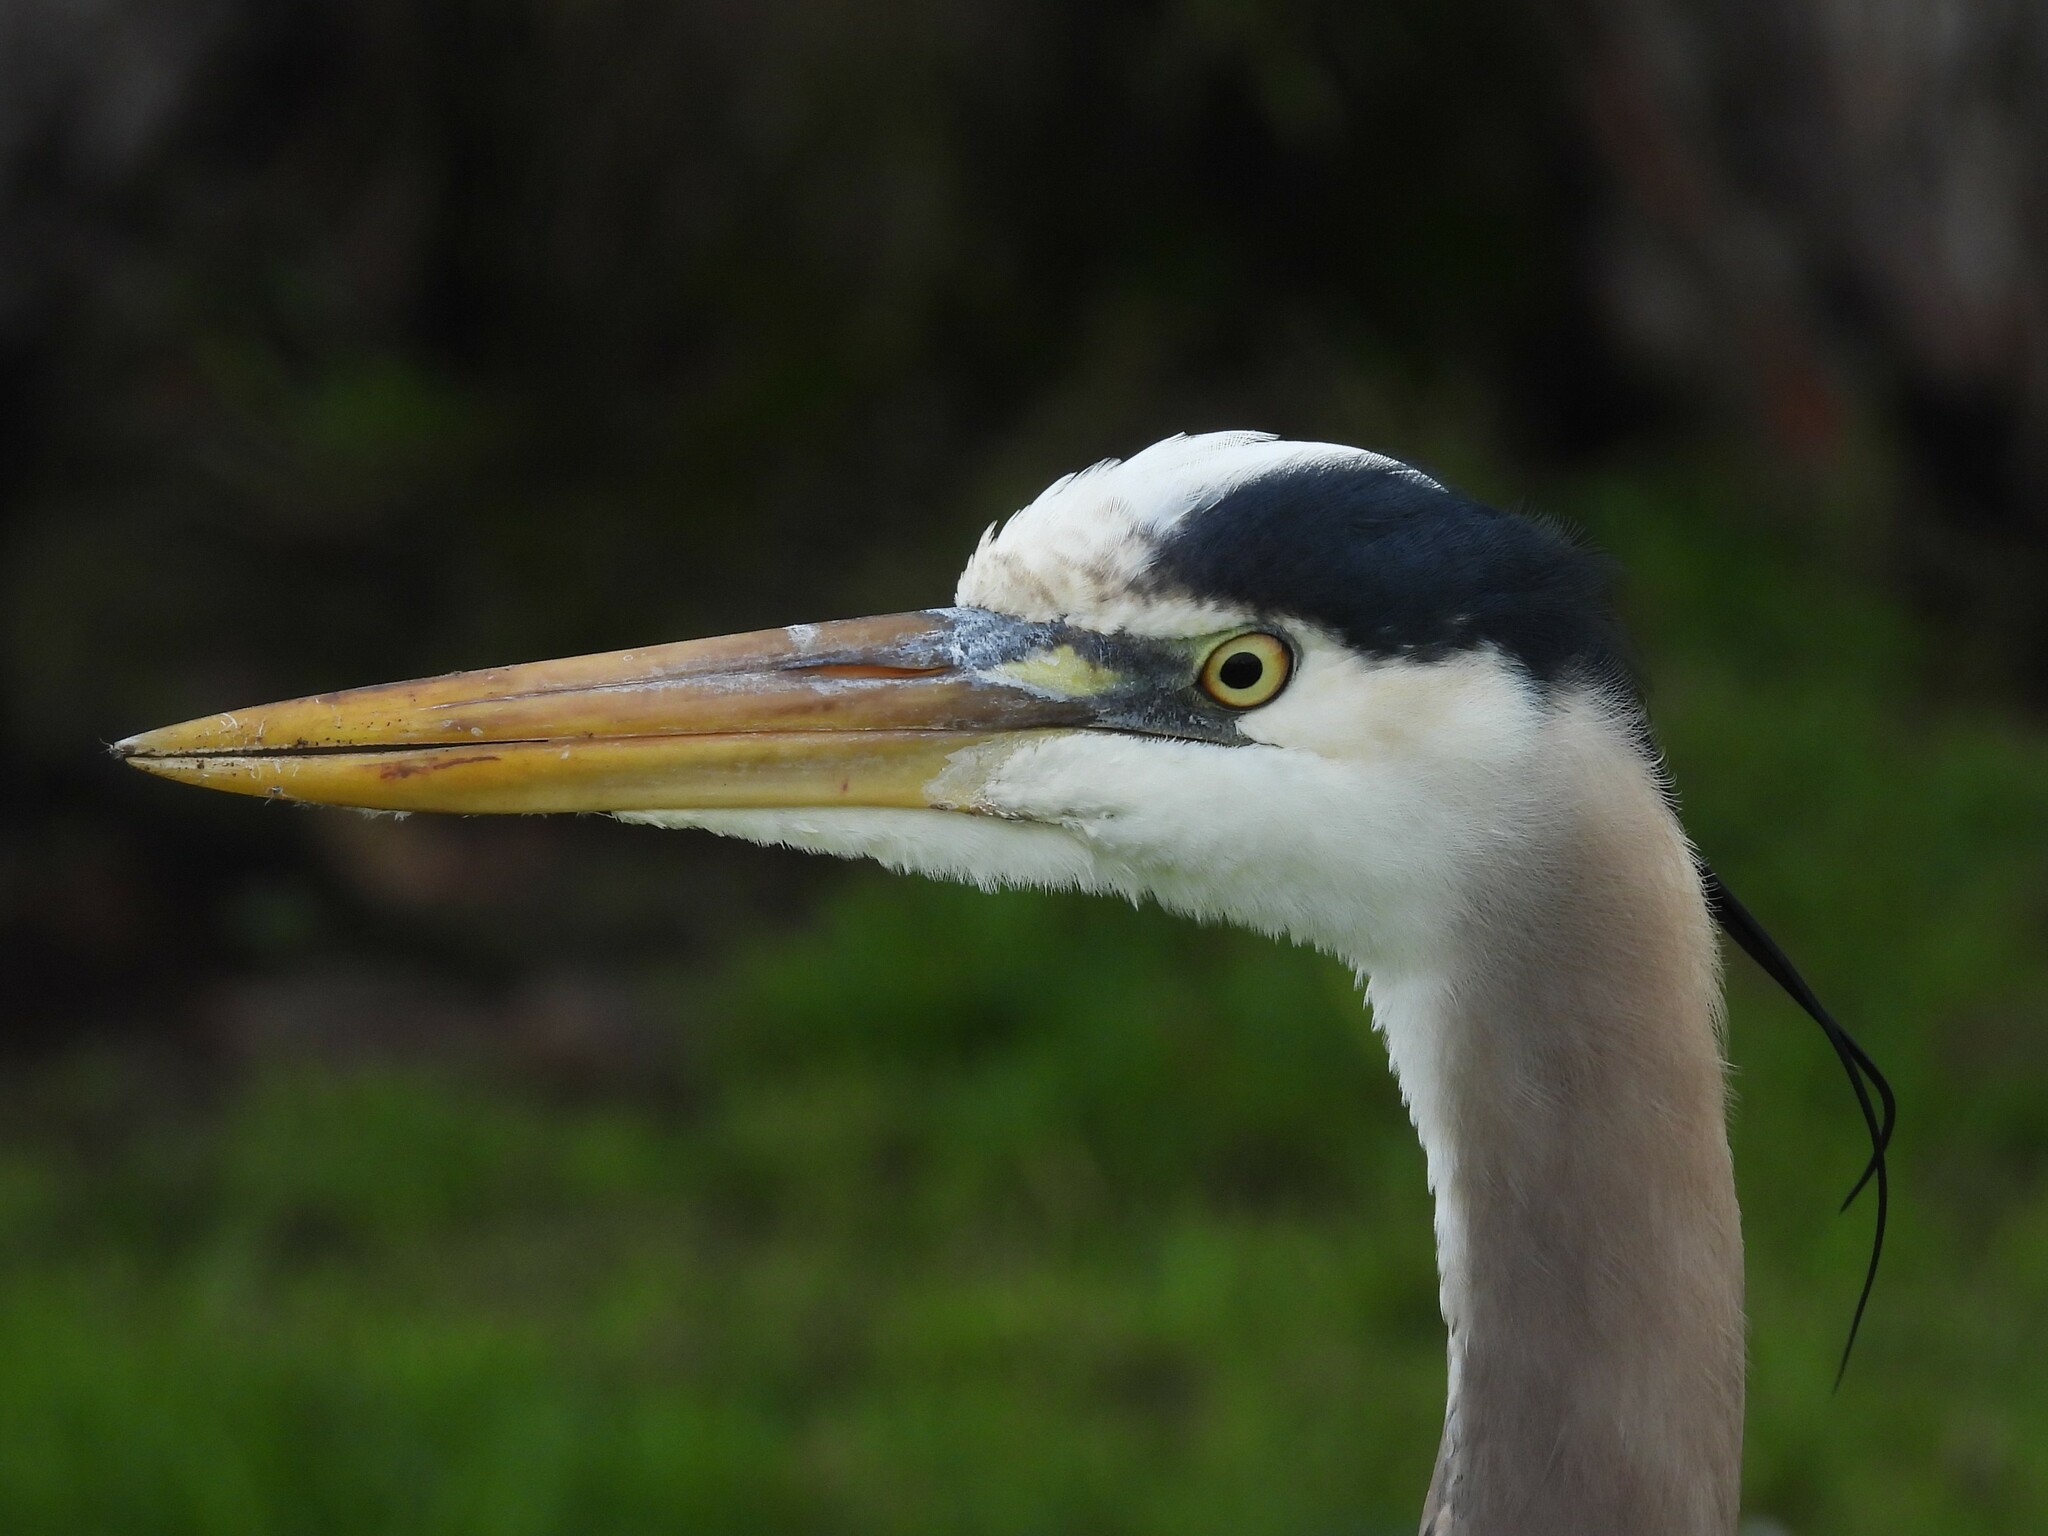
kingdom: Animalia
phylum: Chordata
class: Aves
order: Pelecaniformes
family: Ardeidae
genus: Ardea
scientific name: Ardea herodias
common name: Great blue heron
